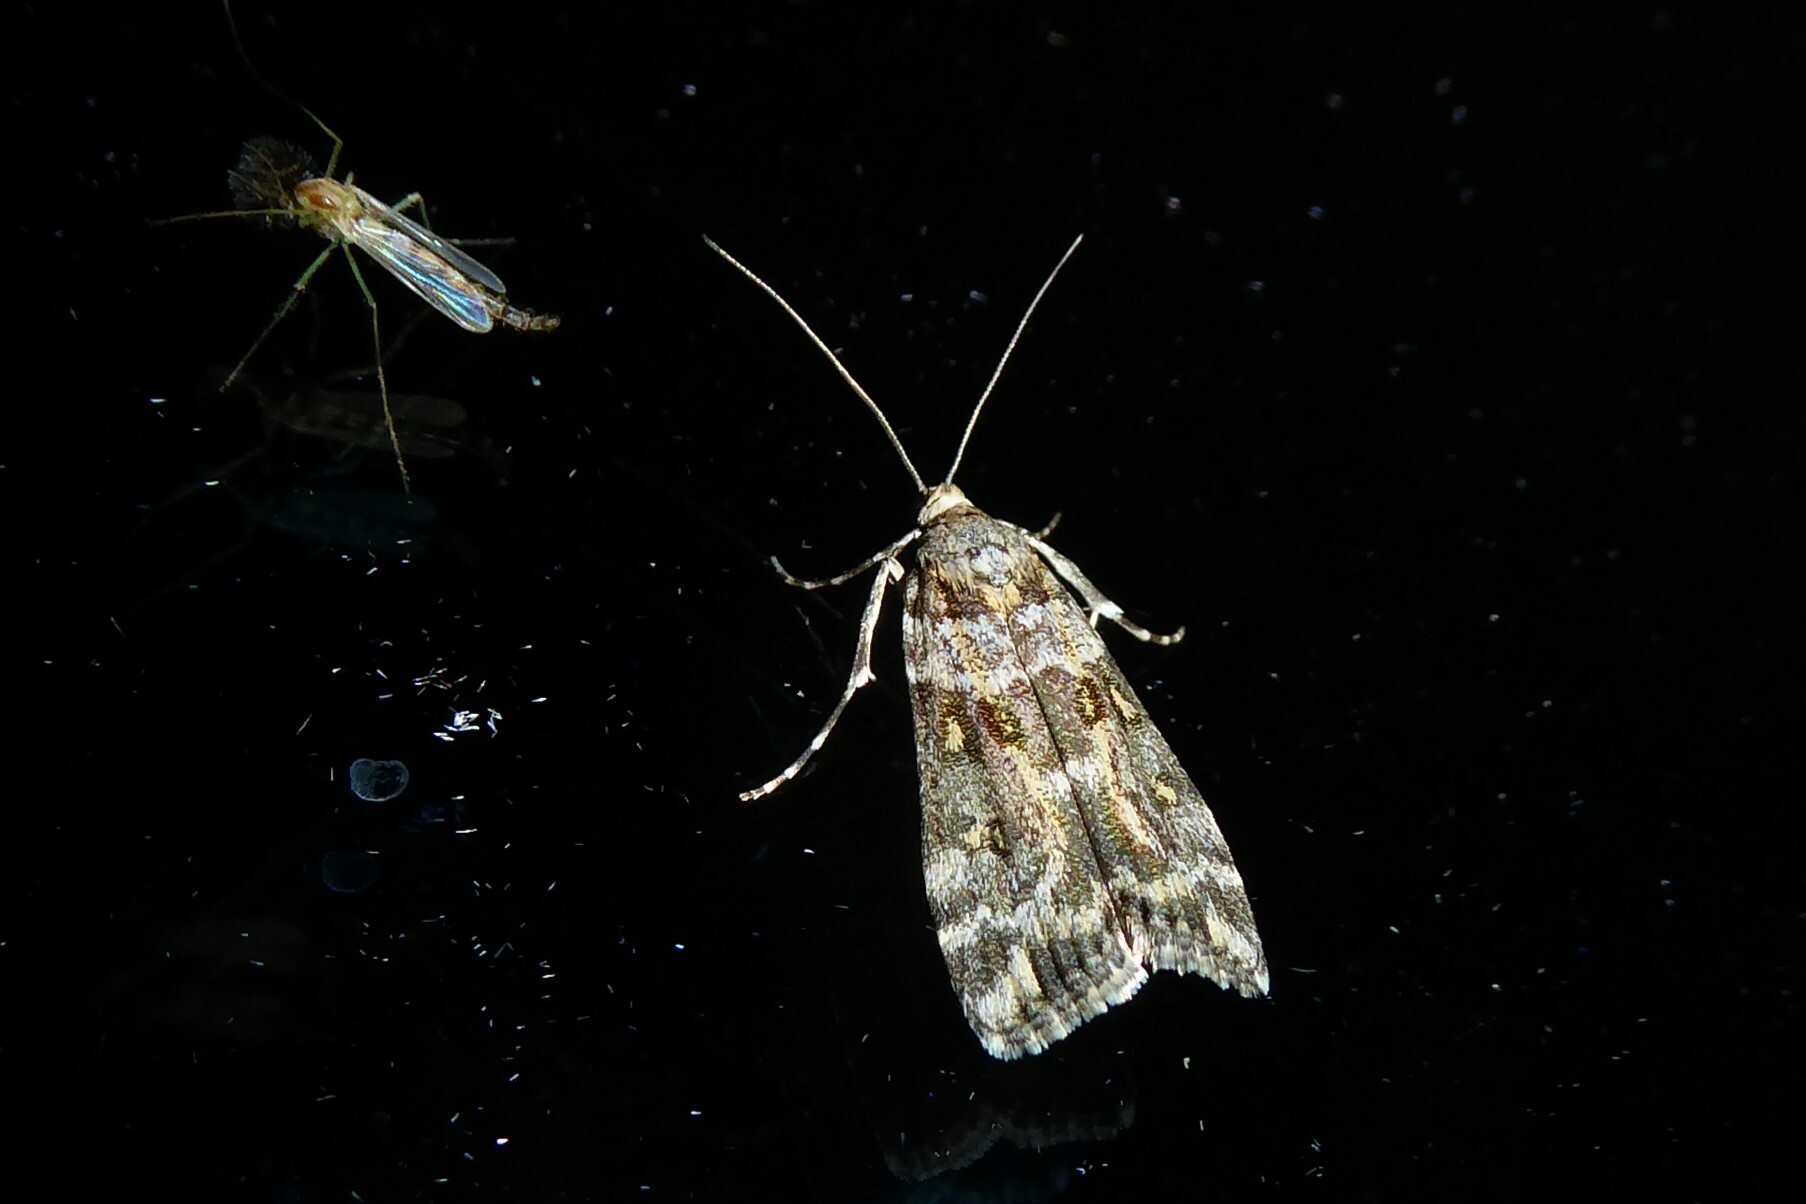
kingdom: Animalia
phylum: Arthropoda
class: Insecta
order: Lepidoptera
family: Crambidae
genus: Scoparia
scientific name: Scoparia tetracycla
